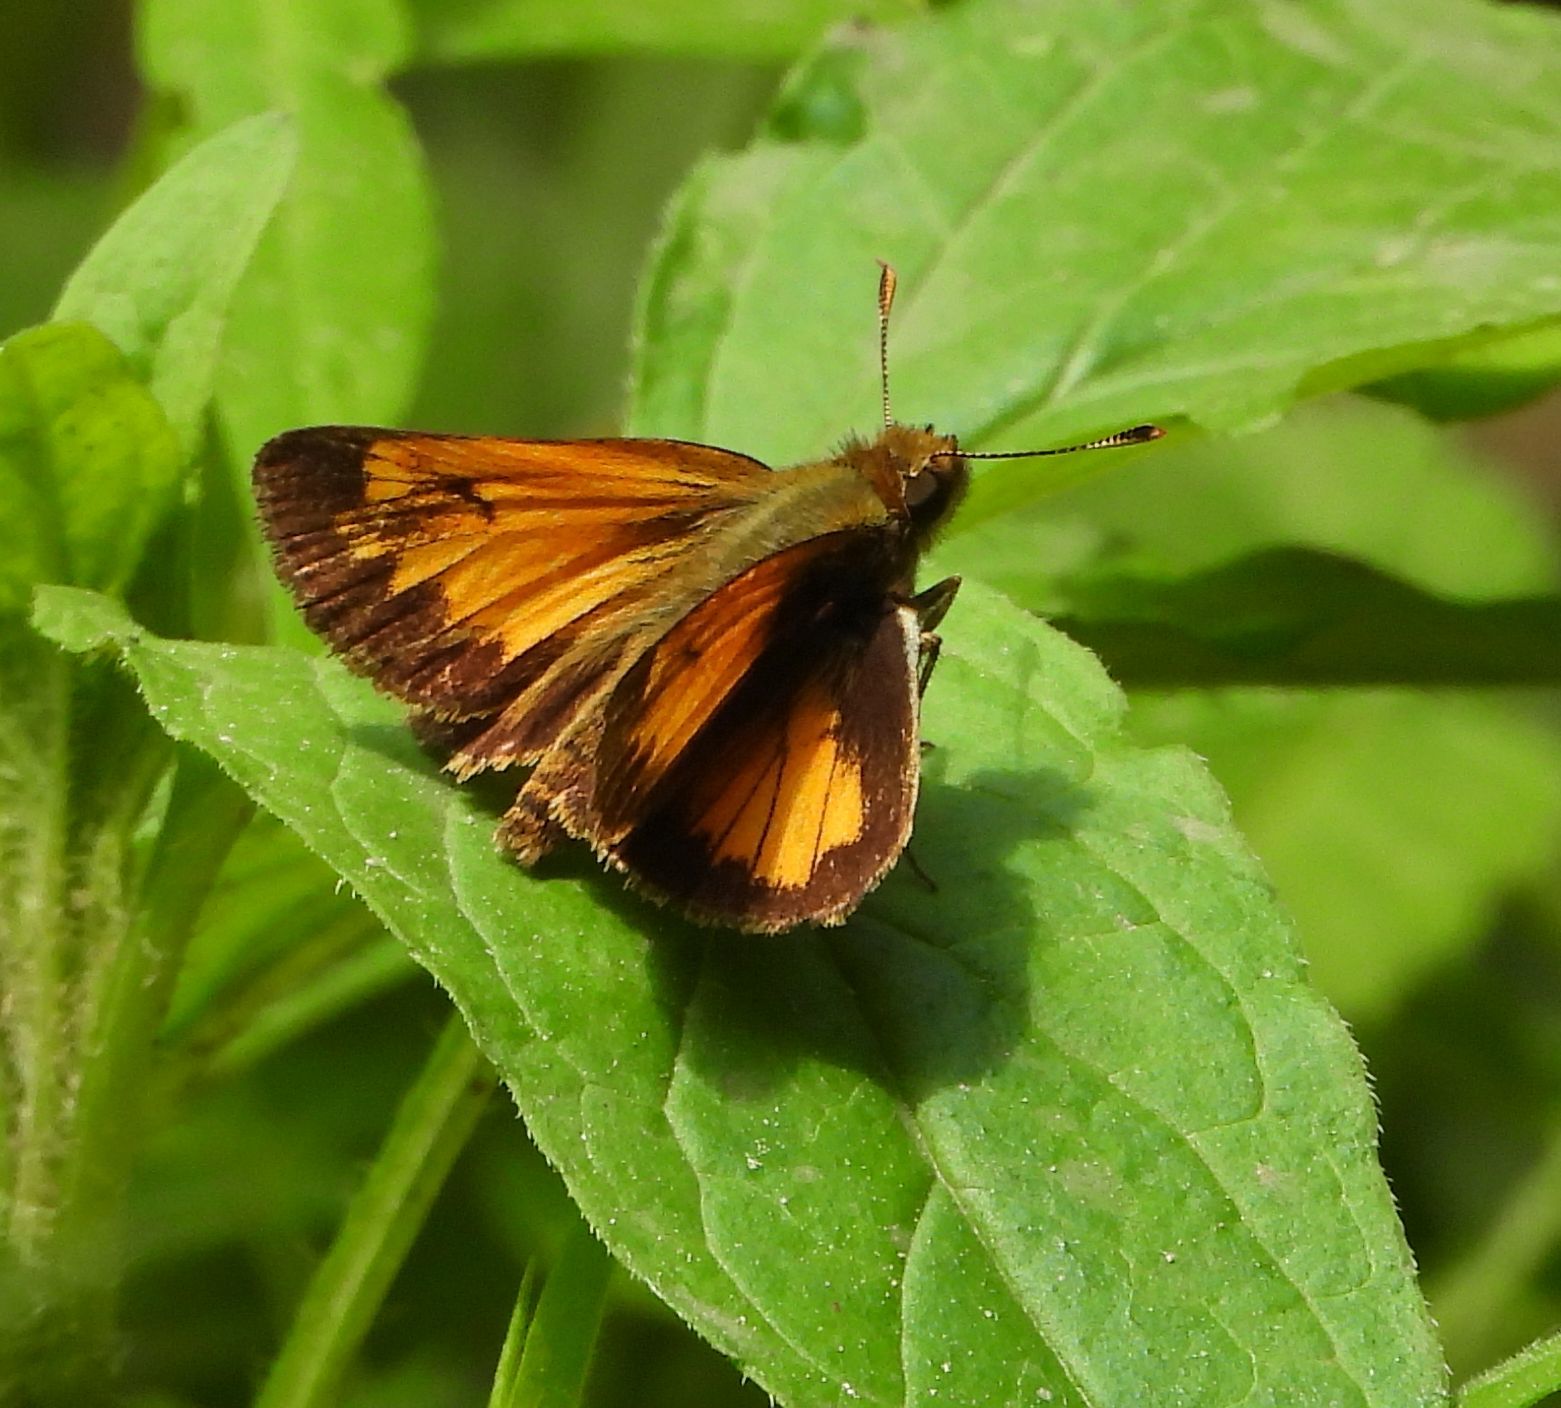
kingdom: Animalia
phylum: Arthropoda
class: Insecta
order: Lepidoptera
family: Hesperiidae
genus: Lon
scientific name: Lon hobomok
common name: Hobomok skipper
